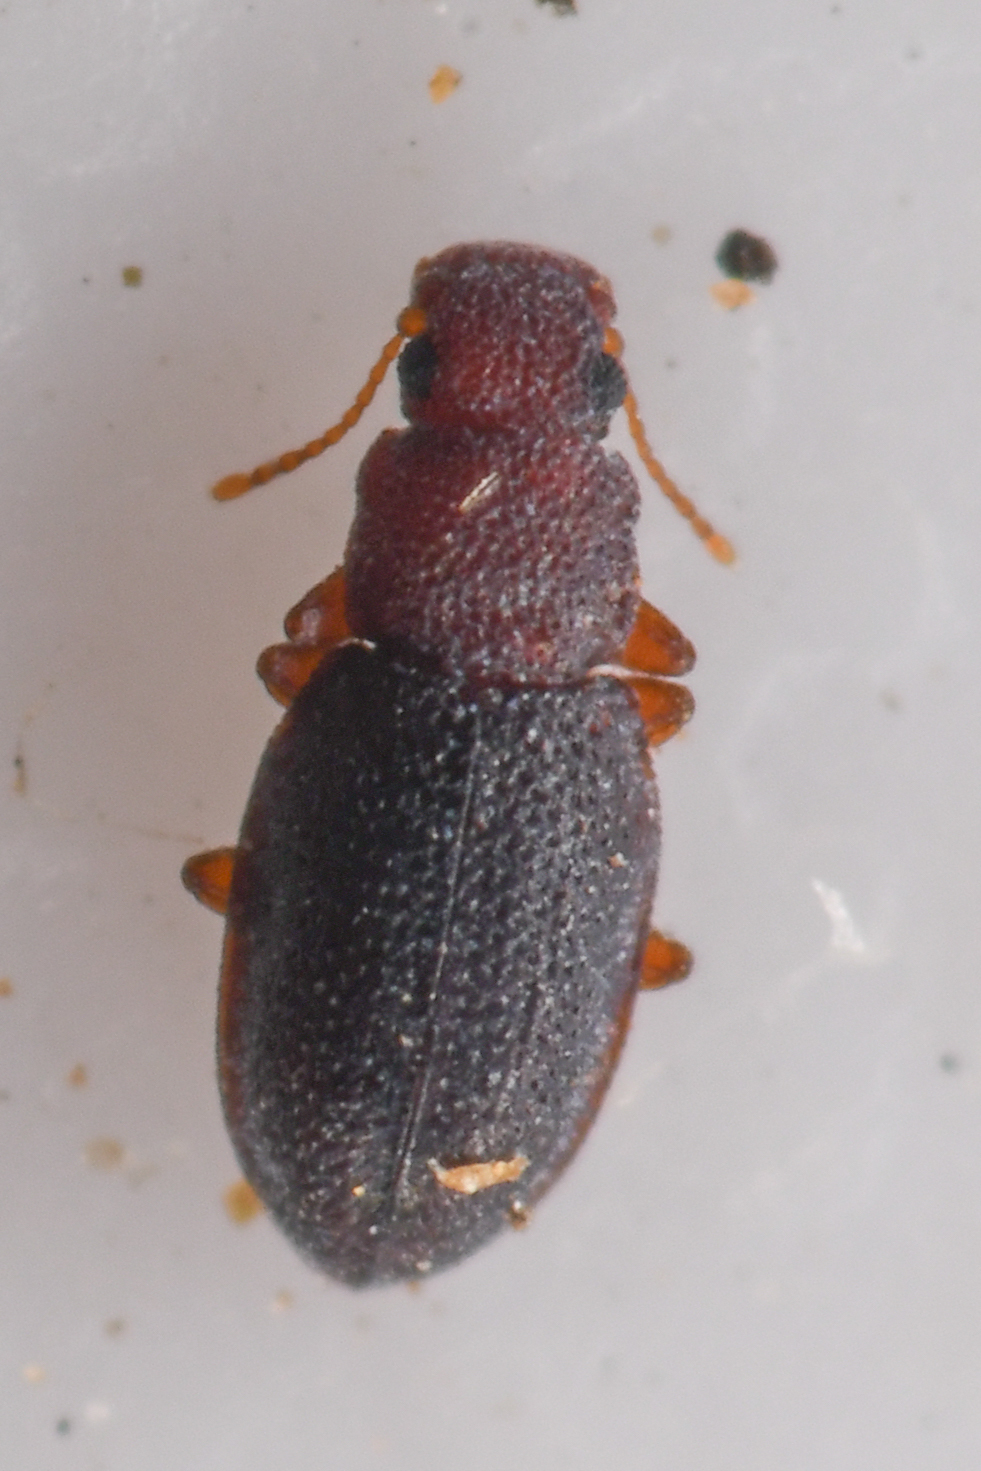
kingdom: Animalia
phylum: Arthropoda
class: Insecta
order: Coleoptera
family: Latridiidae
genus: Revelieria
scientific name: Revelieria
